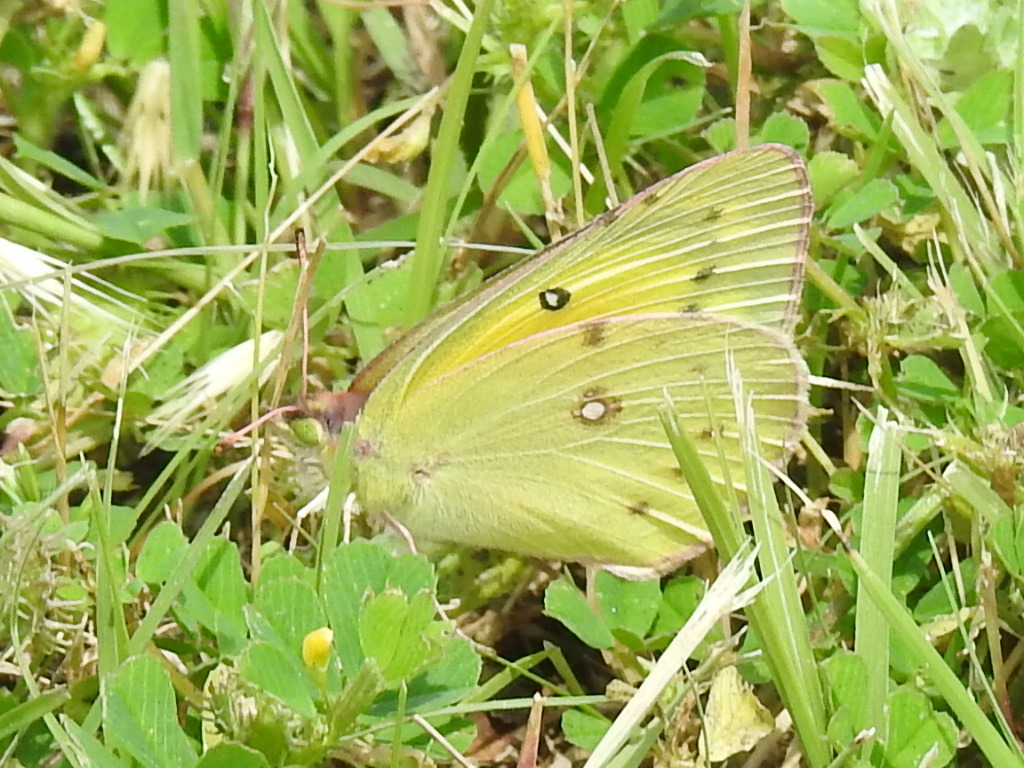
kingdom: Animalia
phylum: Arthropoda
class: Insecta
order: Lepidoptera
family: Pieridae
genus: Colias
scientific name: Colias eurytheme
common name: Alfalfa butterfly
